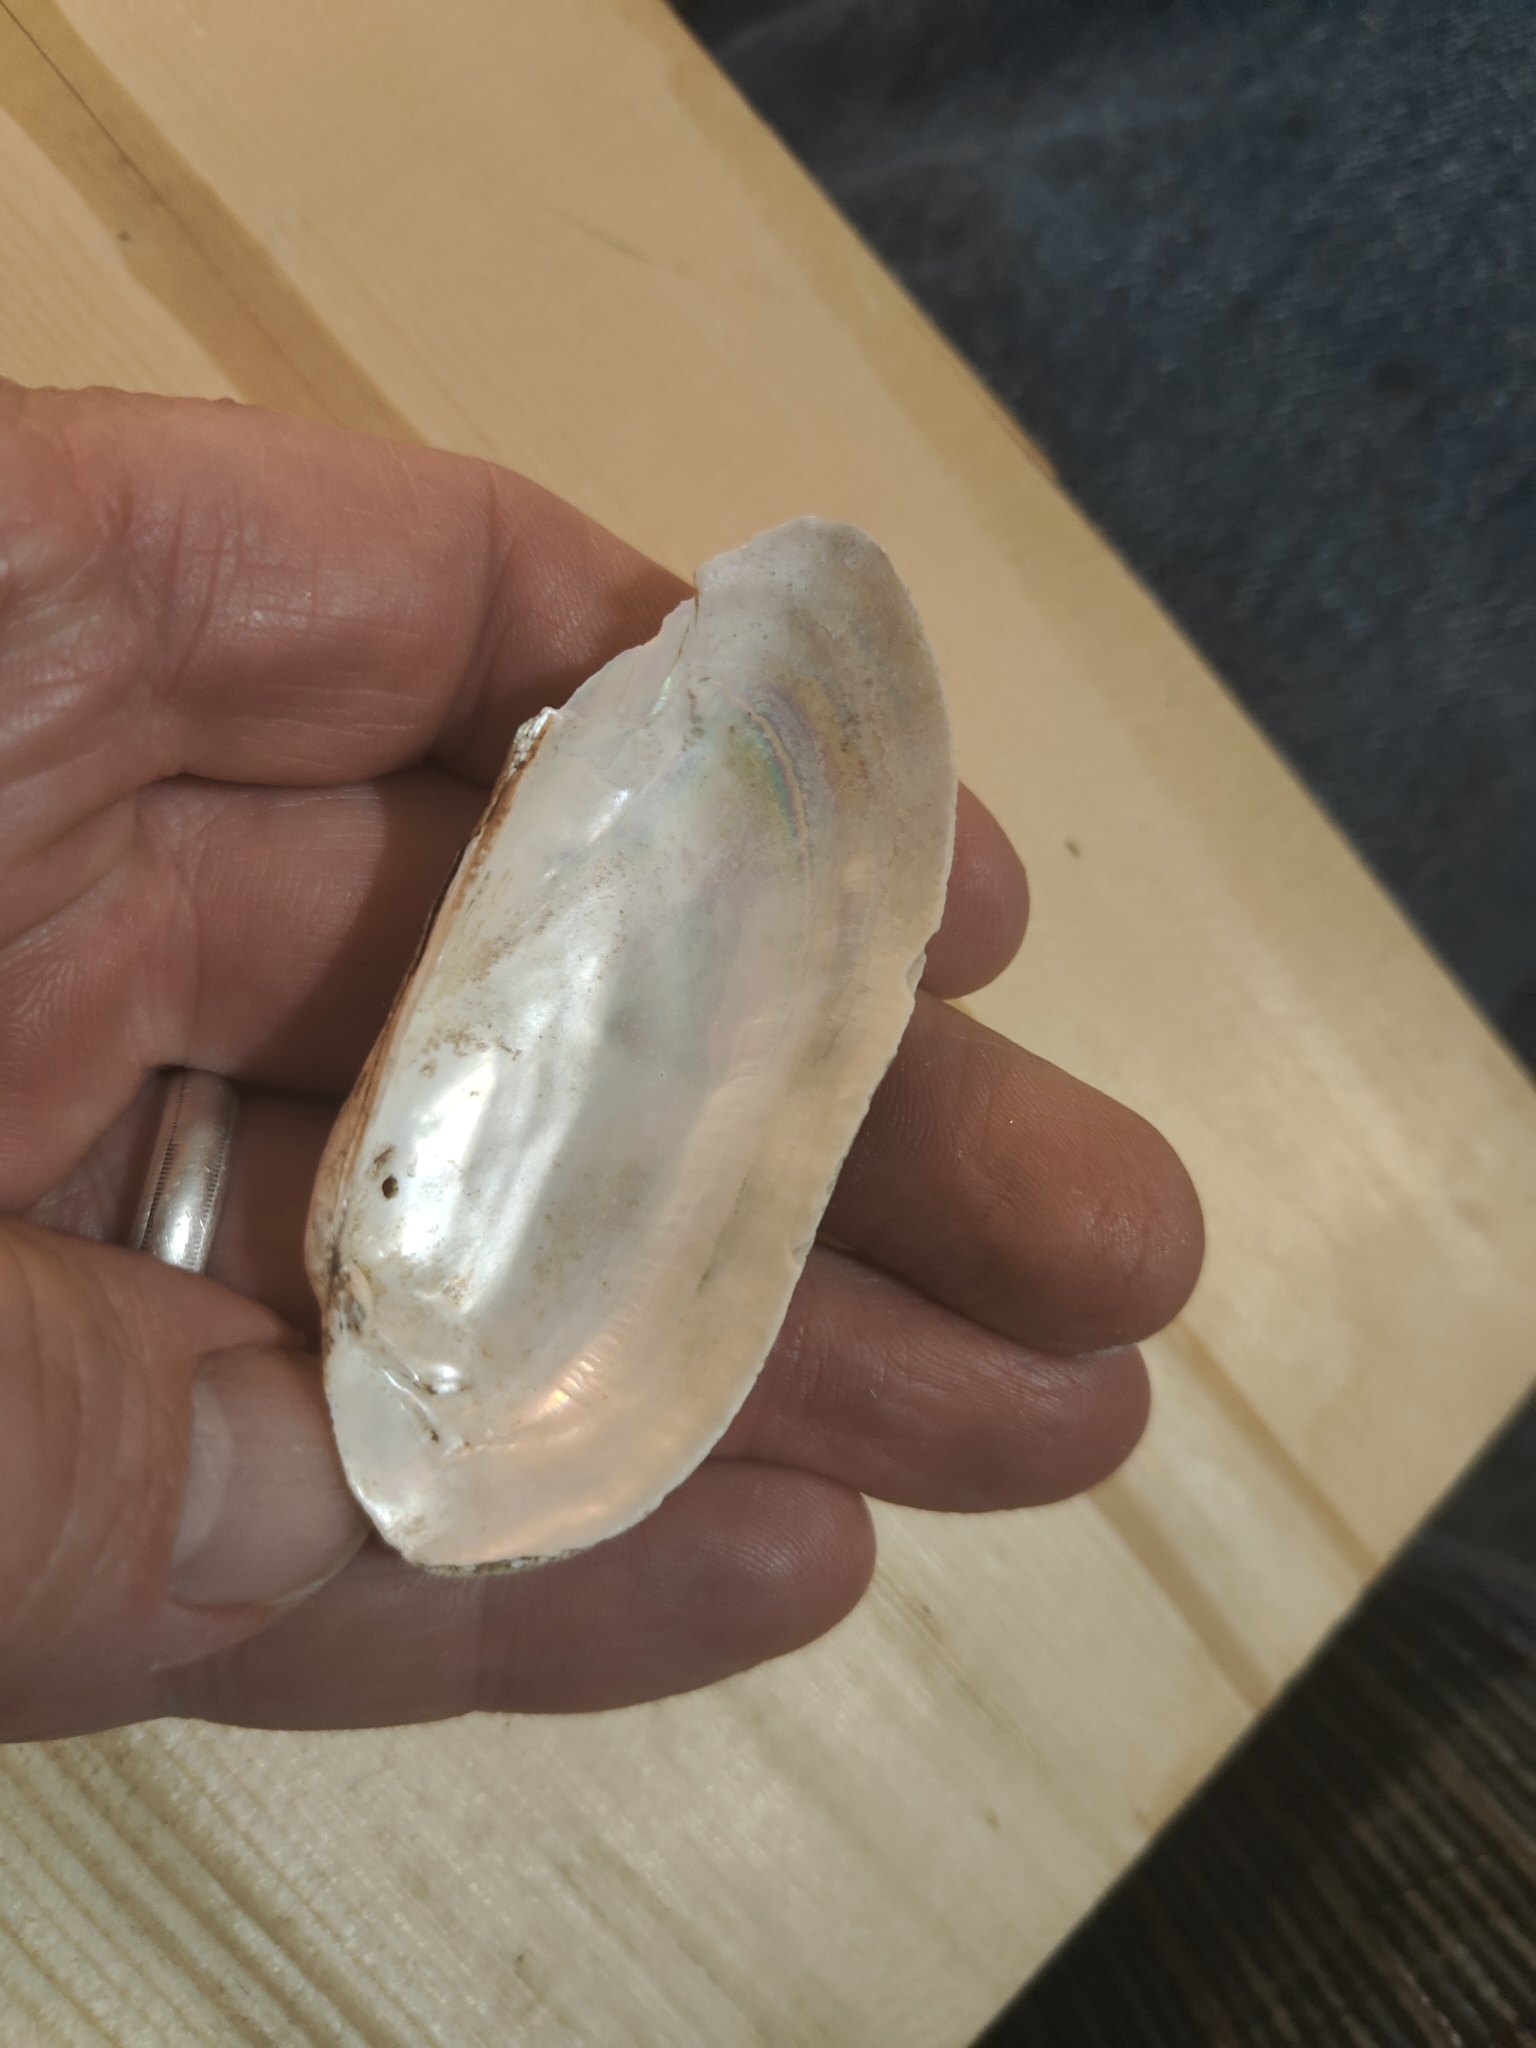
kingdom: Animalia
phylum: Mollusca
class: Bivalvia
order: Unionida
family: Unionidae
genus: Lampsilis
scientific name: Lampsilis teres
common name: Yellow sandshell
